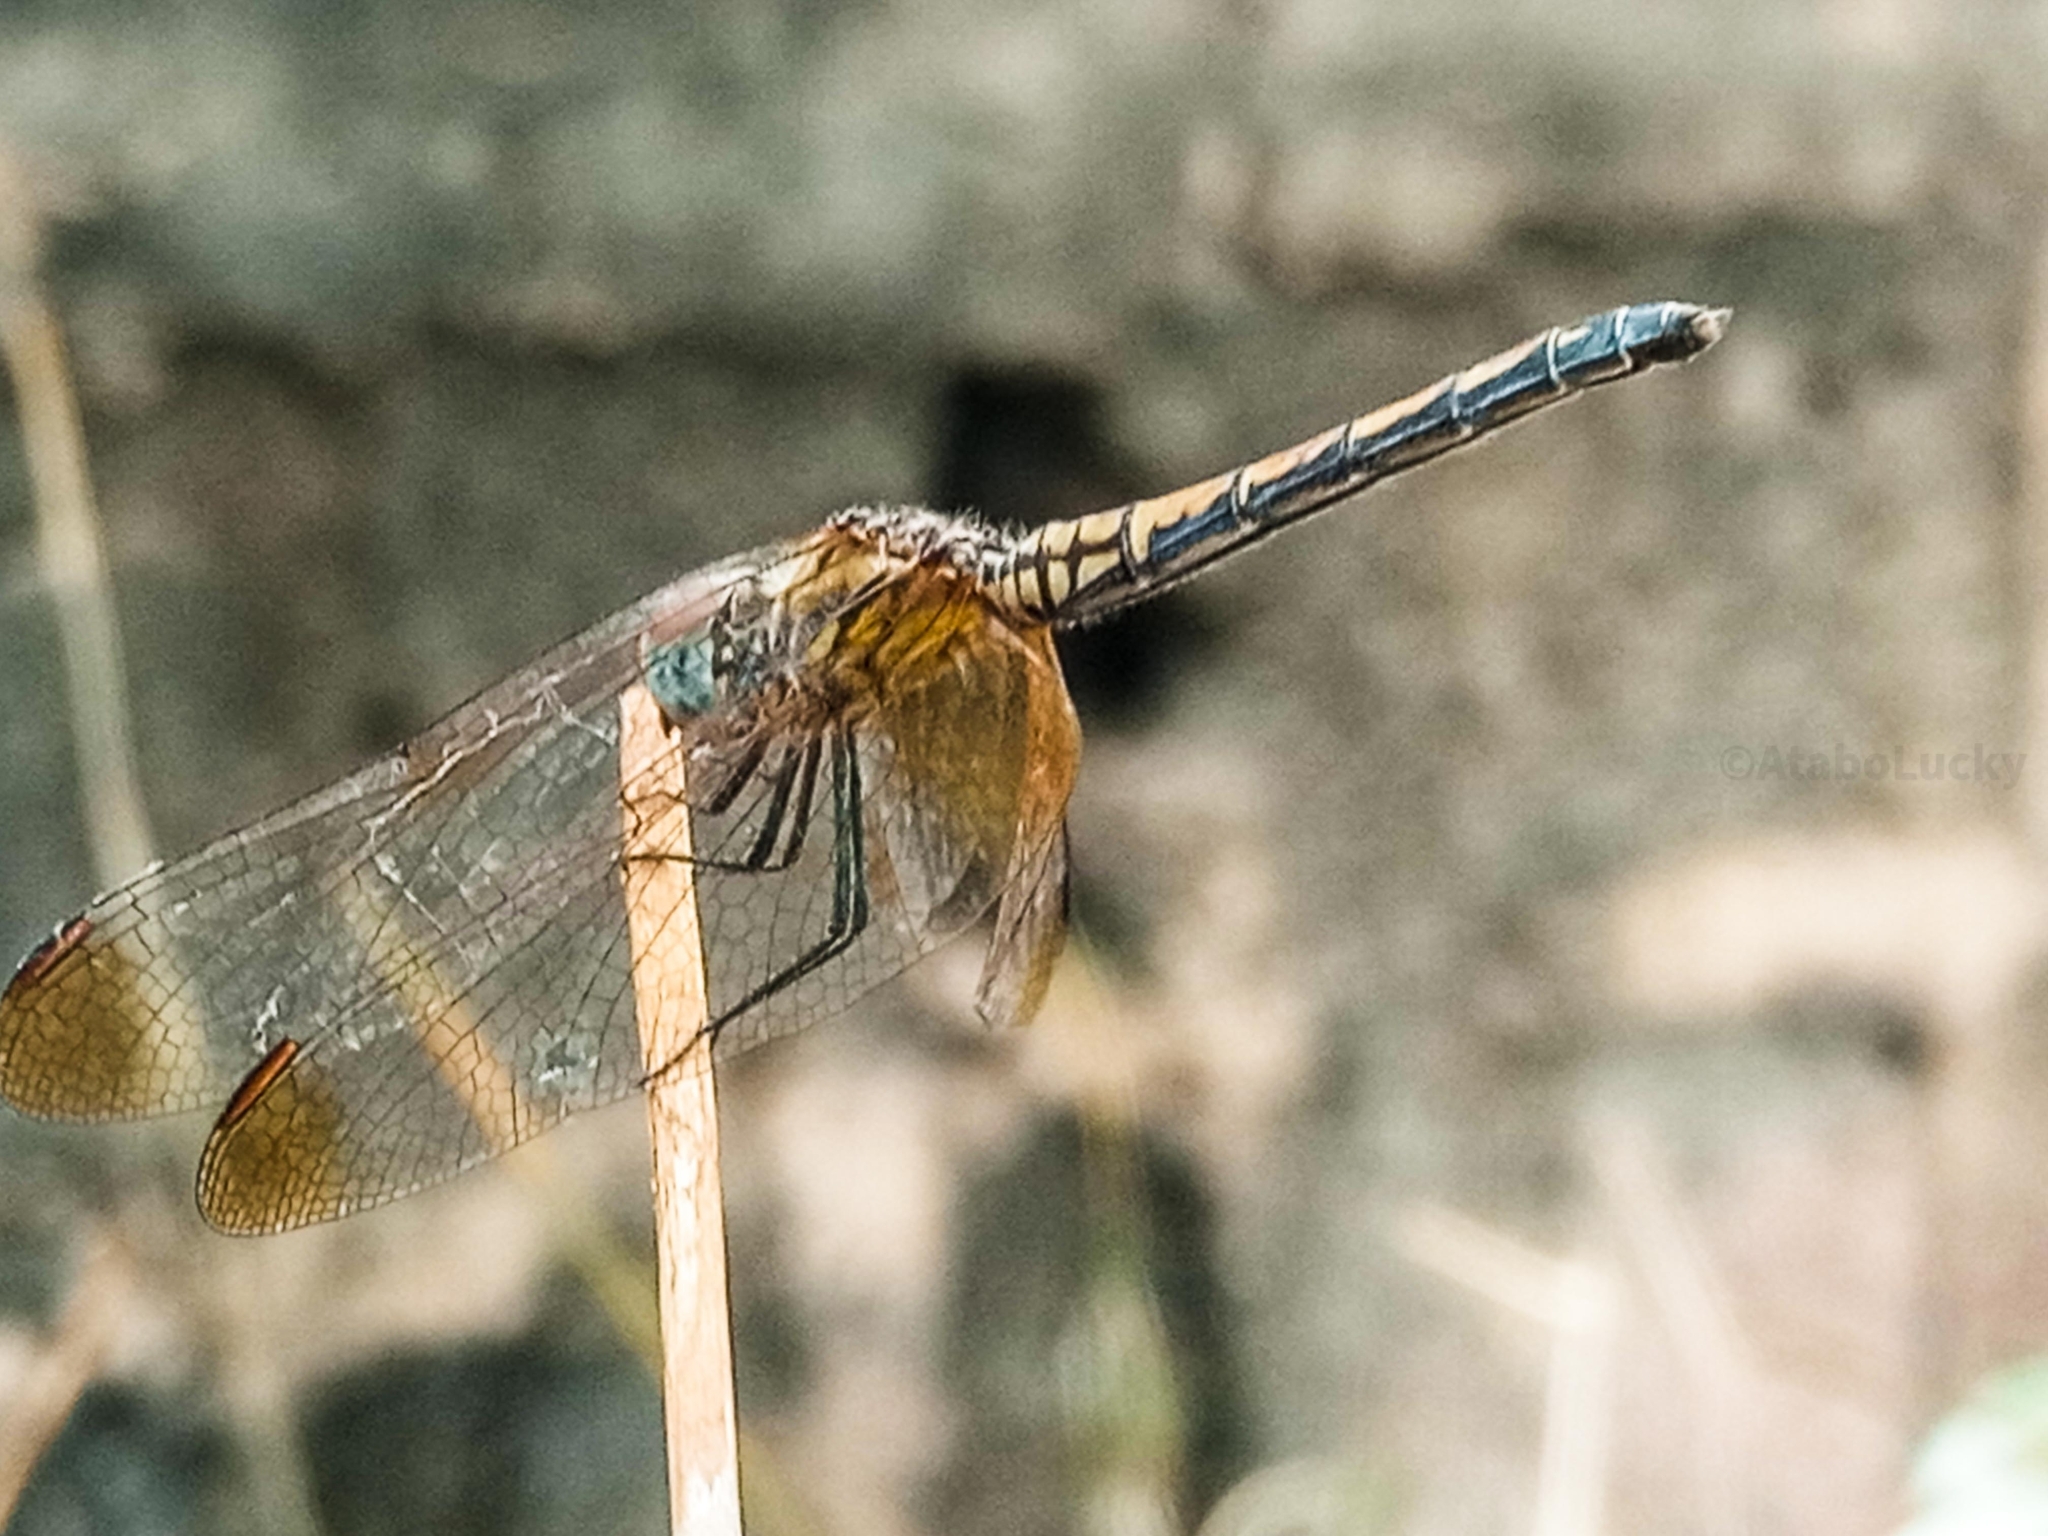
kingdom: Animalia
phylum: Arthropoda
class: Insecta
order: Odonata
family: Libellulidae
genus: Trithemis
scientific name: Trithemis arteriosa
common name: Red-veined dropwing
